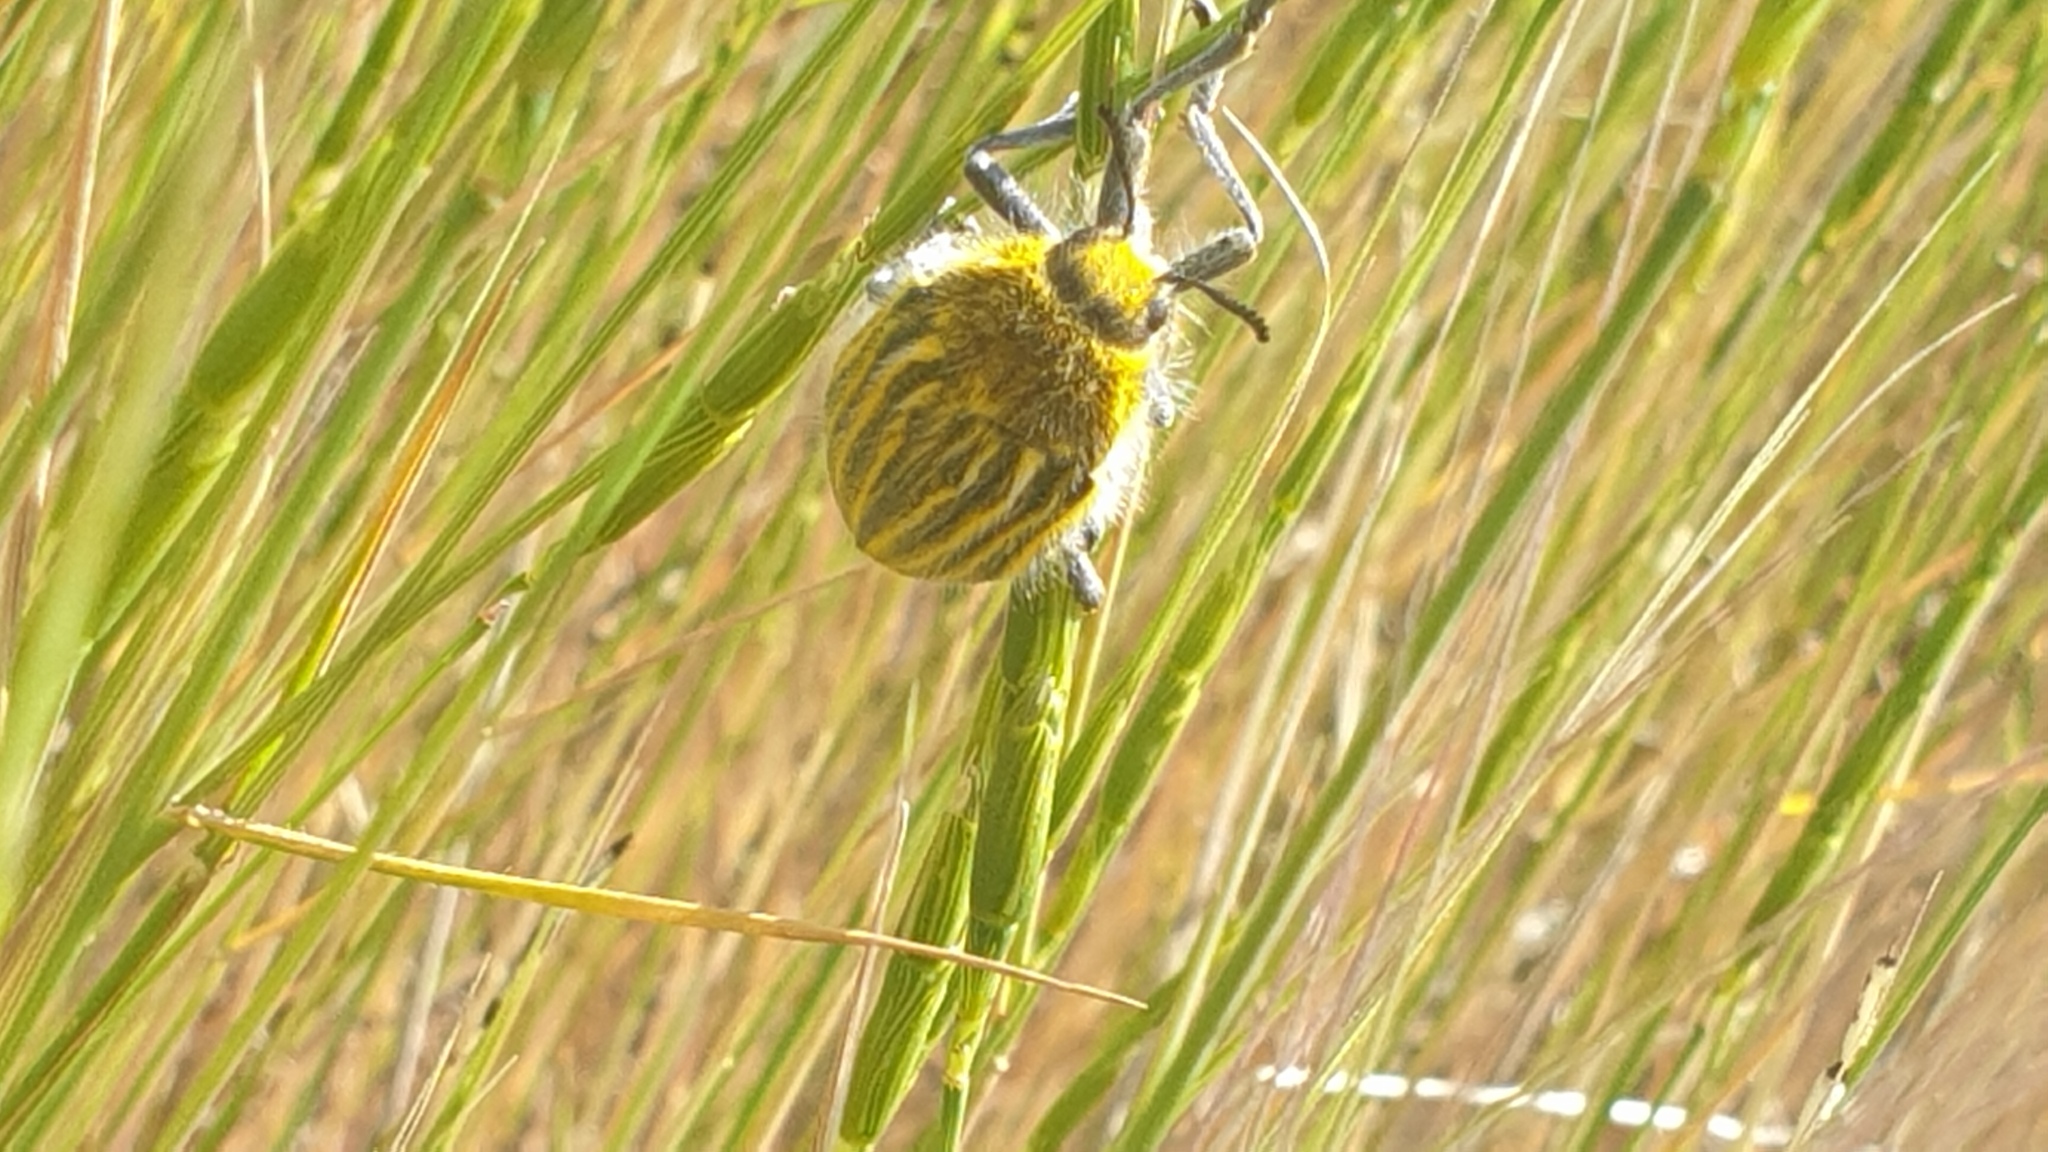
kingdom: Animalia
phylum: Arthropoda
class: Insecta
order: Coleoptera
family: Buprestidae
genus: Julodis
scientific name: Julodis andreae
